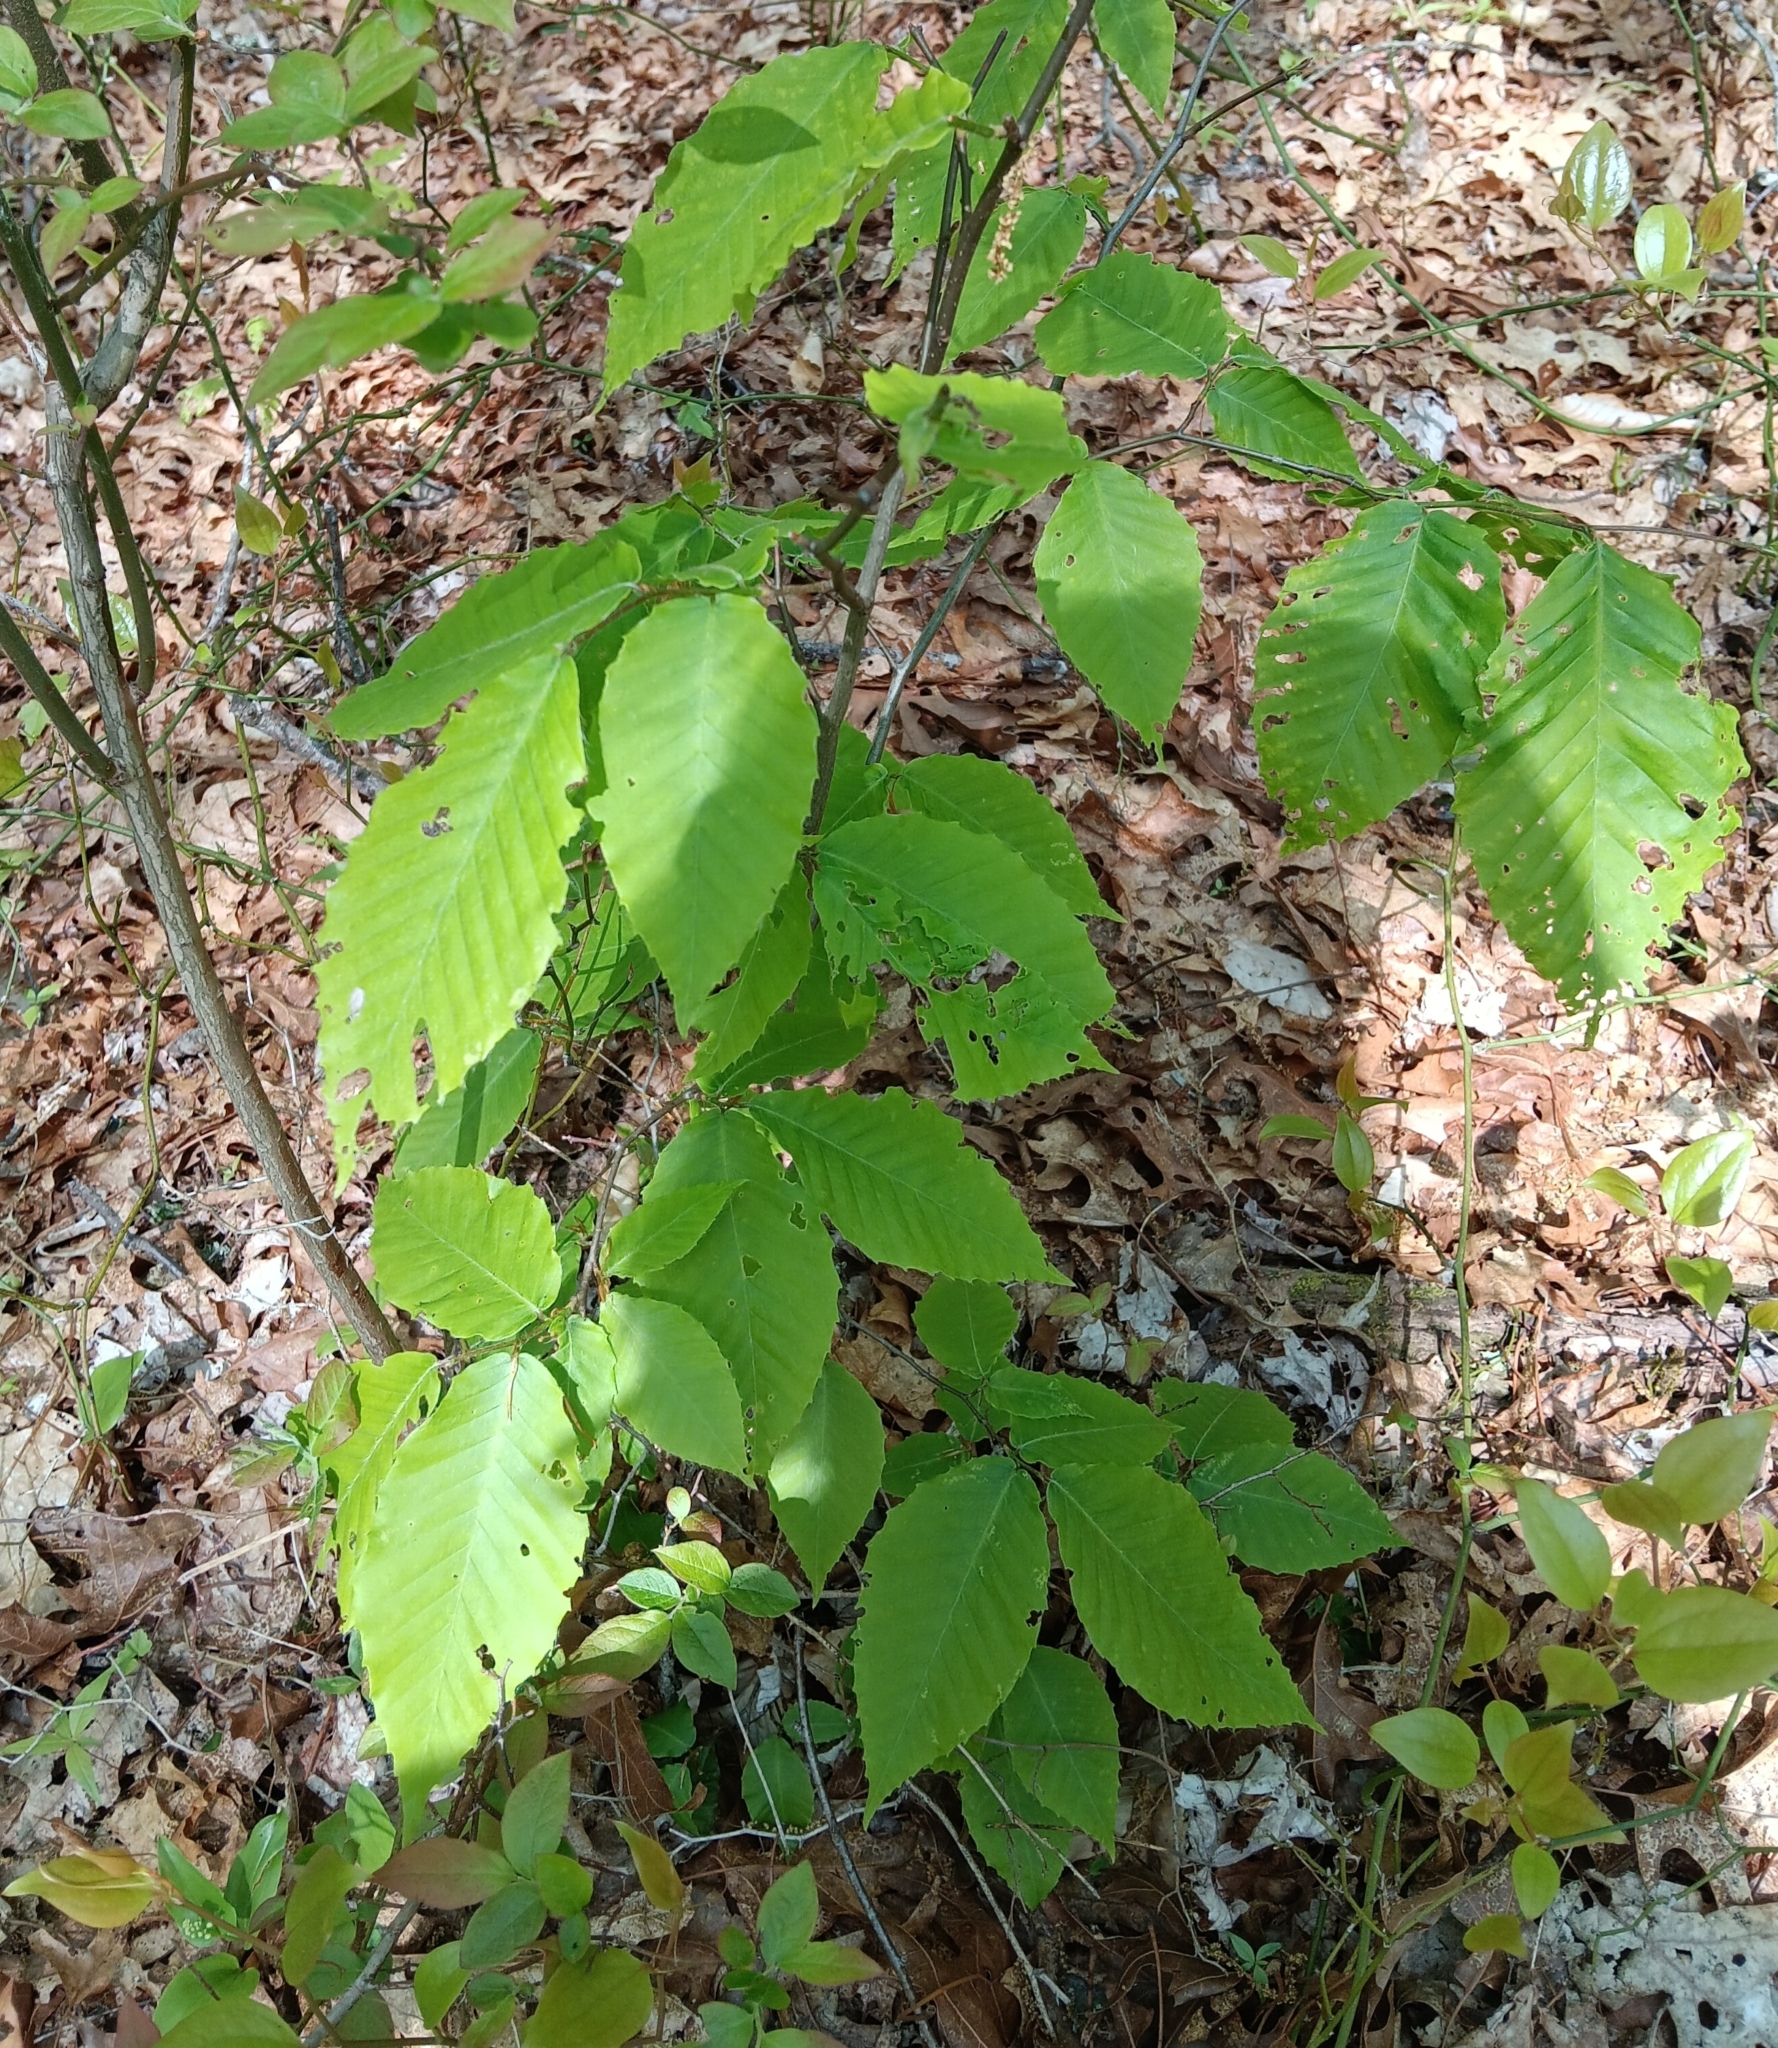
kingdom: Plantae
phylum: Tracheophyta
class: Magnoliopsida
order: Fagales
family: Fagaceae
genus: Fagus
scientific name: Fagus grandifolia
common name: American beech
